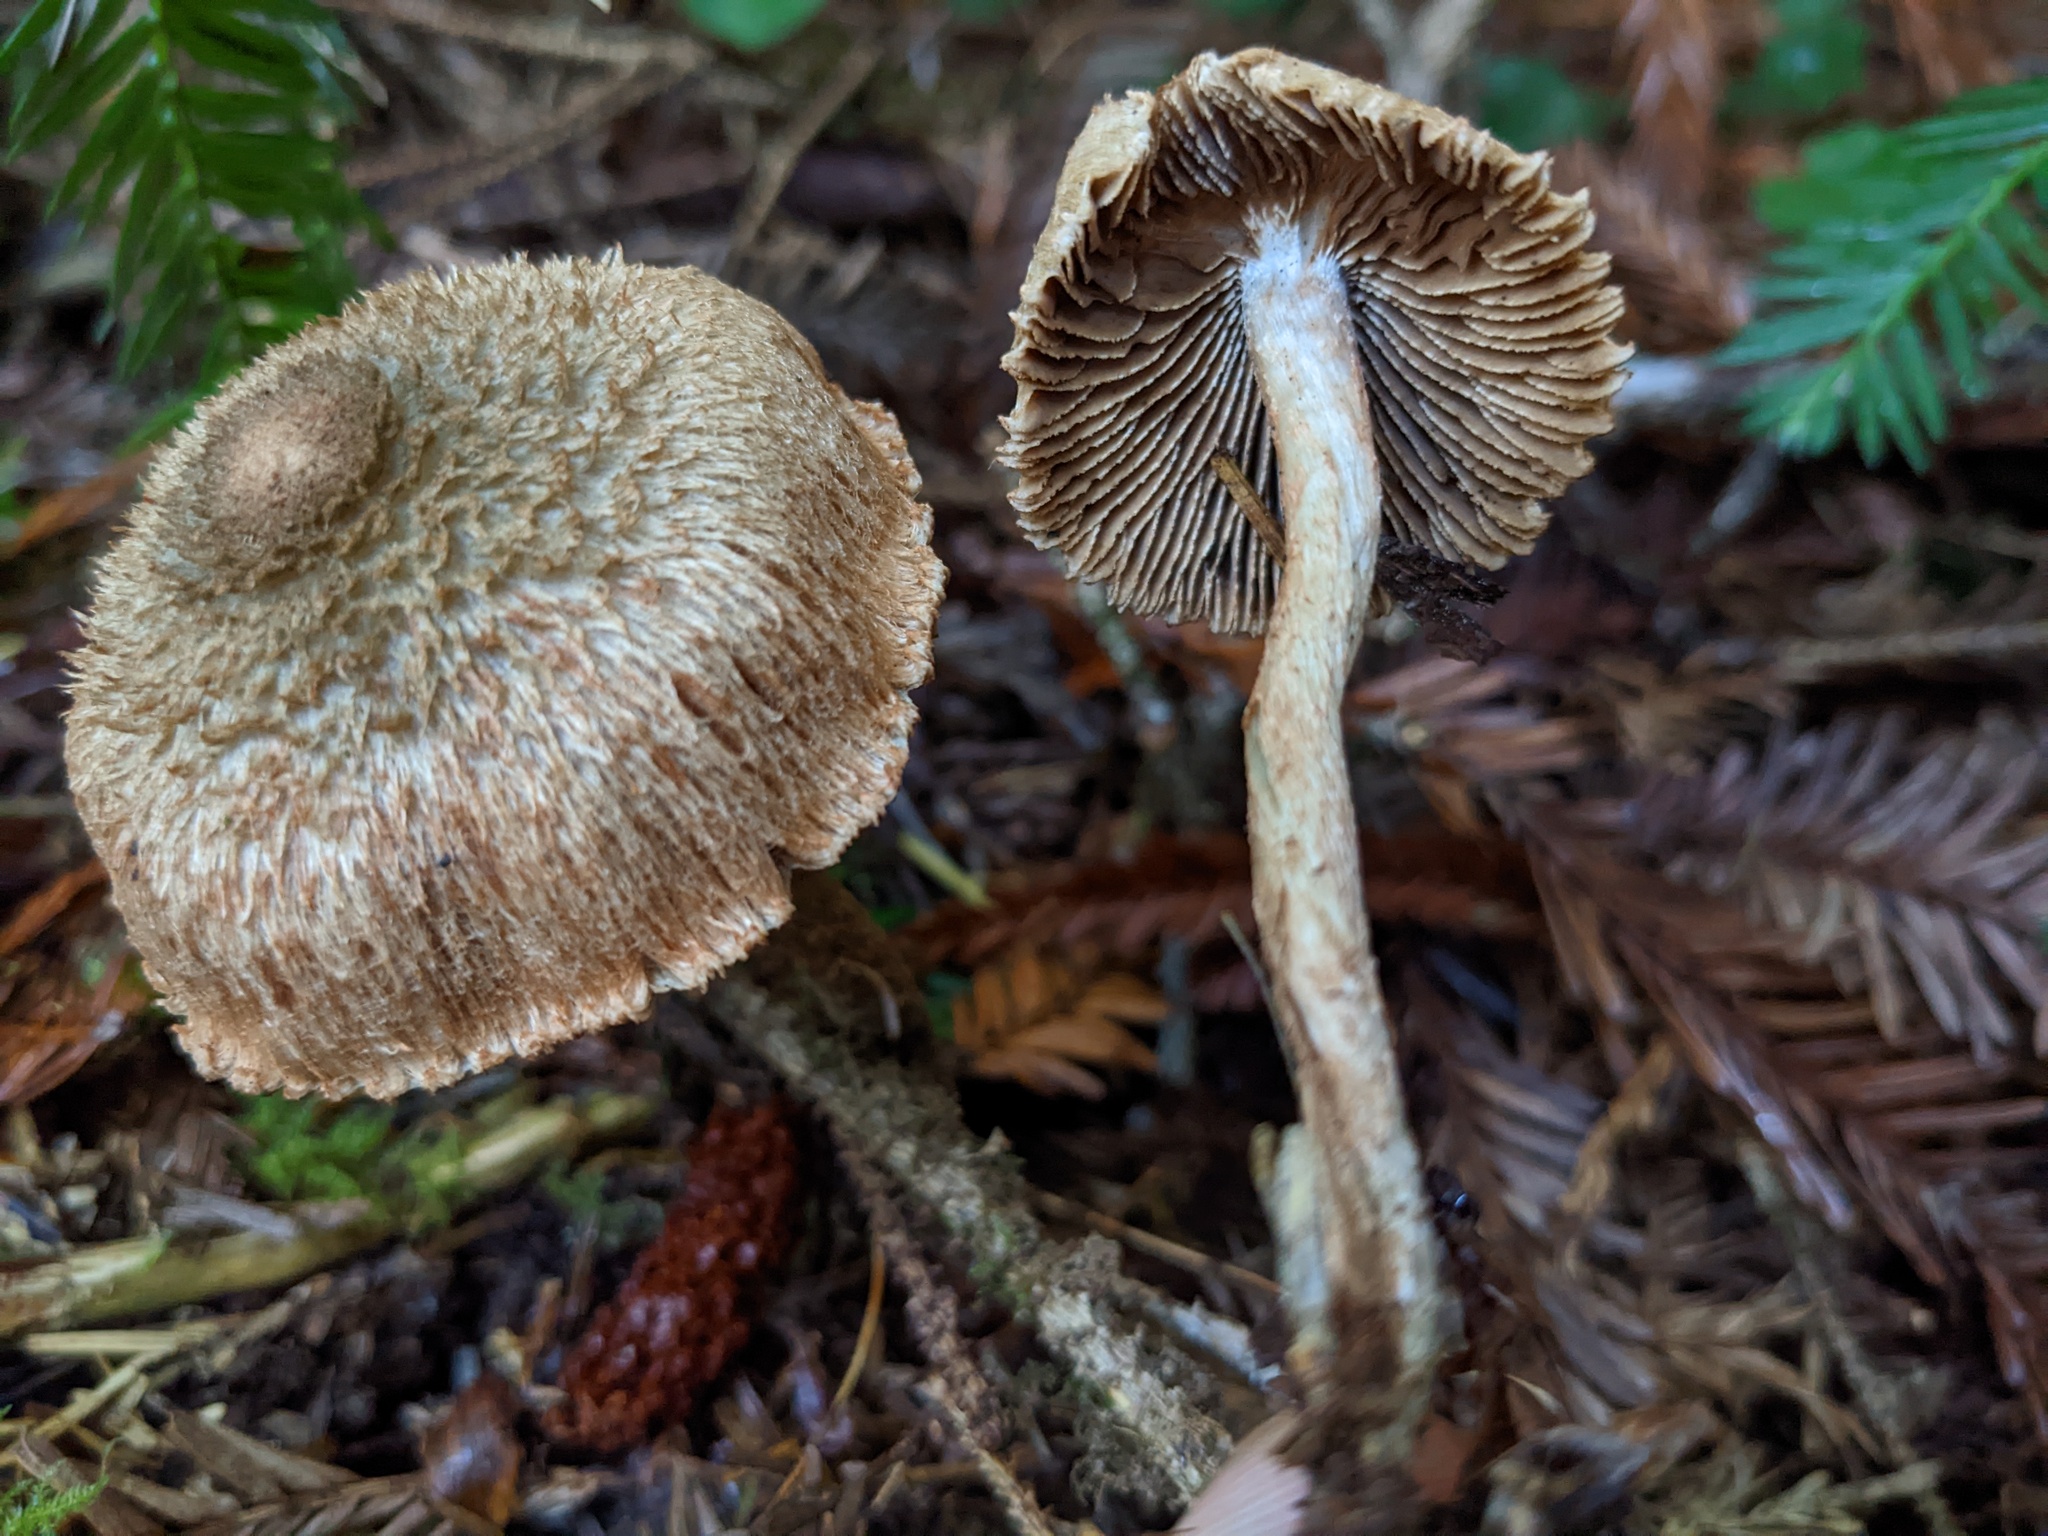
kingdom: Fungi
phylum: Basidiomycota
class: Agaricomycetes
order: Agaricales
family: Inocybaceae
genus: Inosperma
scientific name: Inosperma calamistratum
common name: Greenfoot fibrecap
